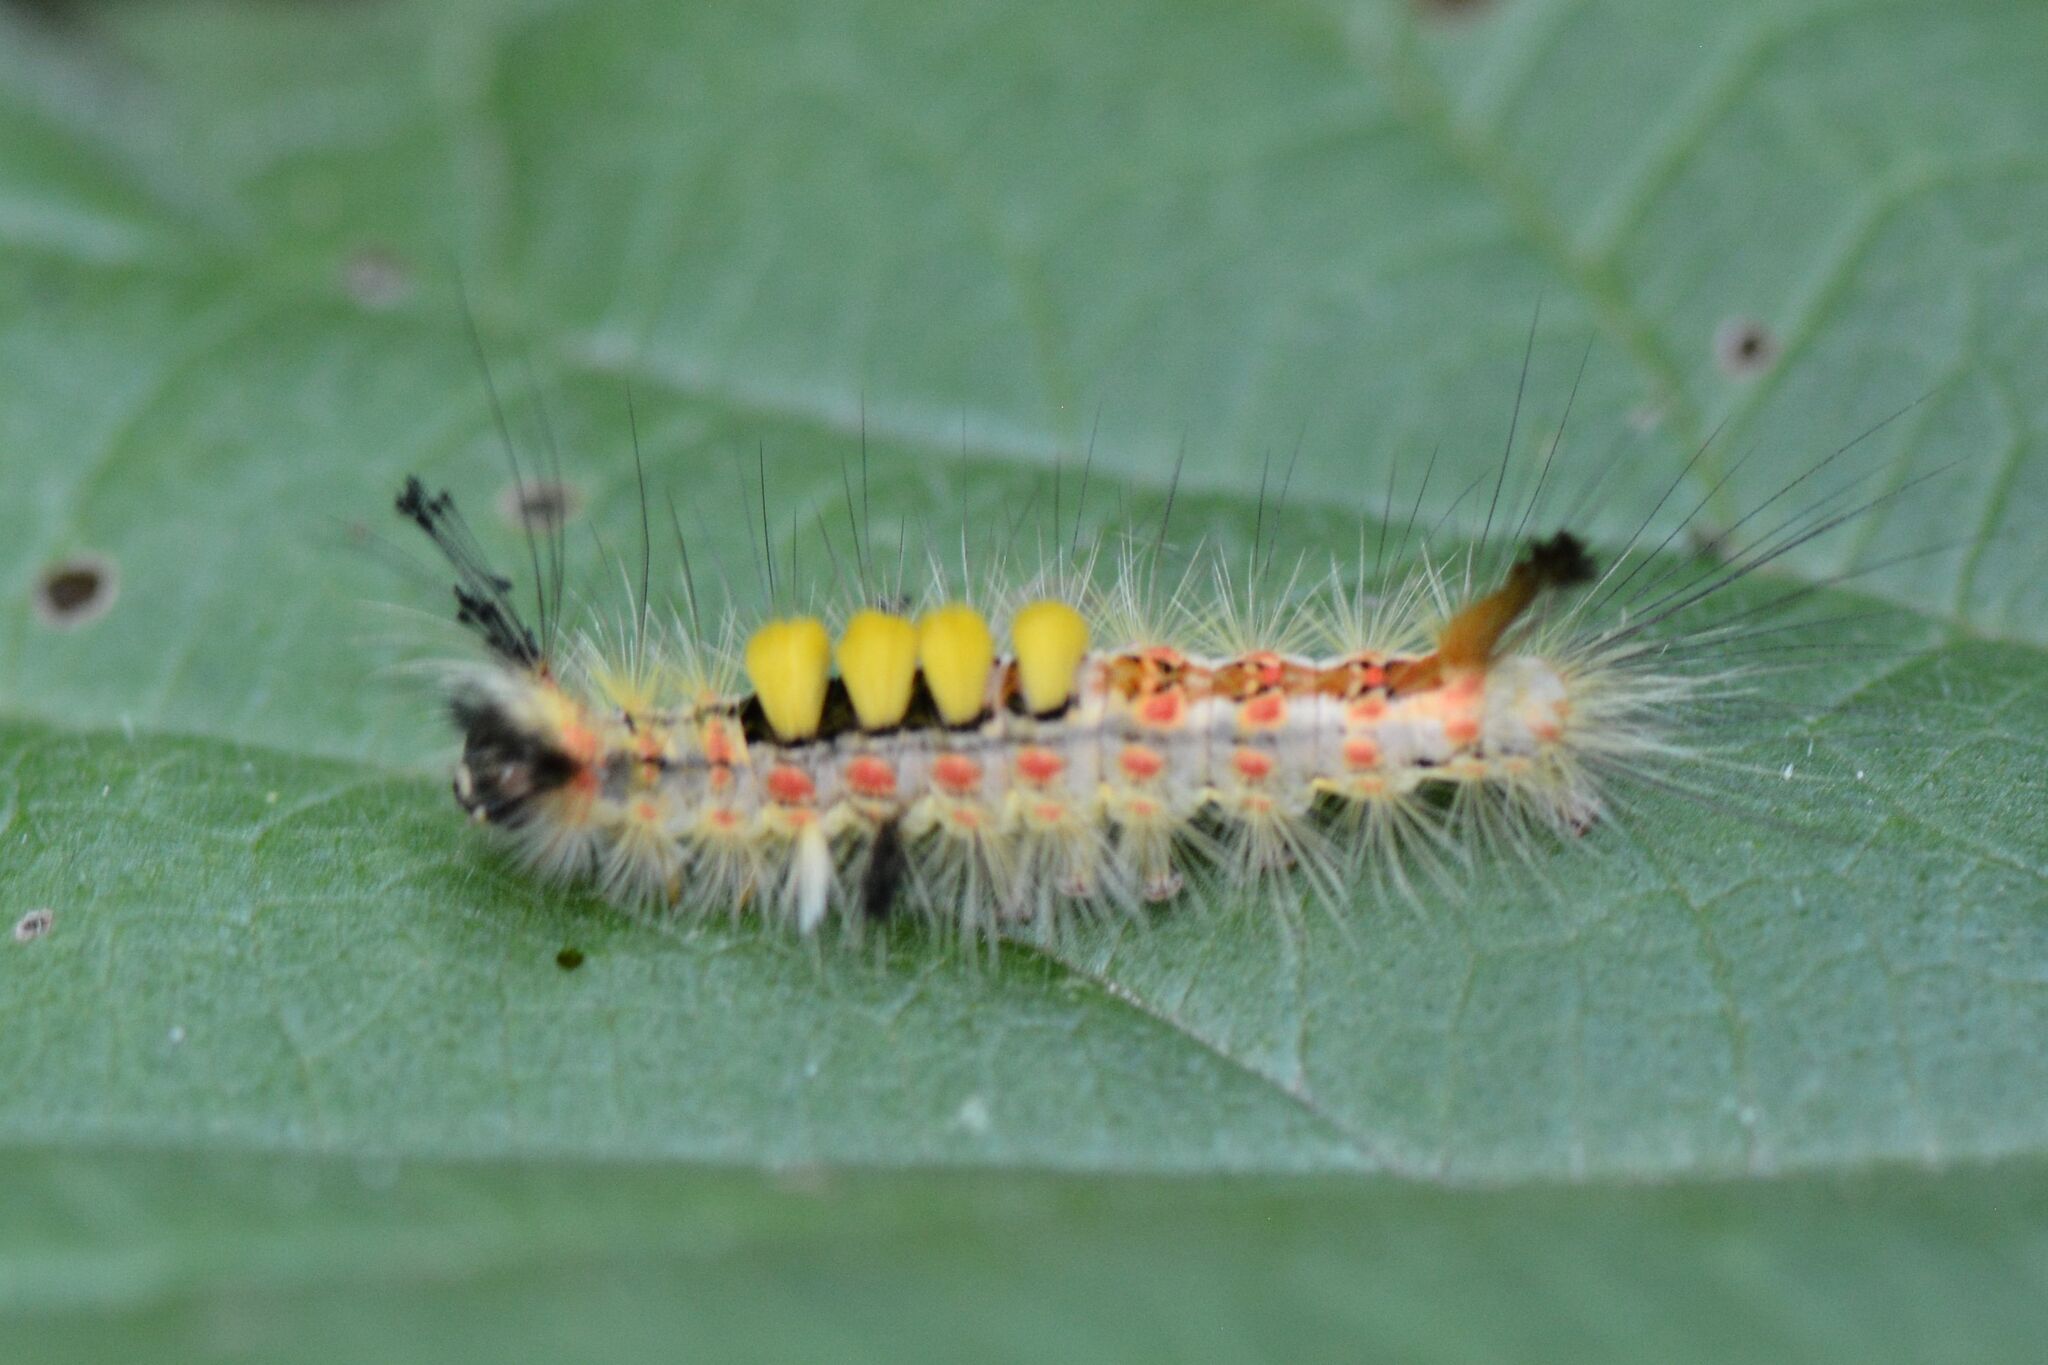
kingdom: Animalia
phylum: Arthropoda
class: Insecta
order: Lepidoptera
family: Erebidae
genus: Orgyia
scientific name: Orgyia antiqua
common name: Vapourer
